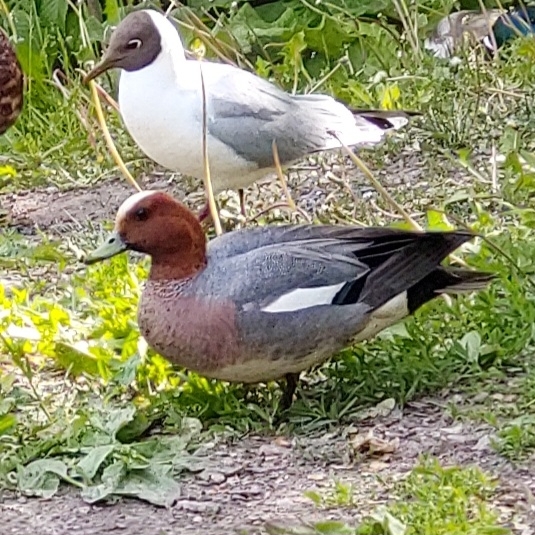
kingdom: Animalia
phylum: Chordata
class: Aves
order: Anseriformes
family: Anatidae
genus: Mareca
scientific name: Mareca penelope
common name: Eurasian wigeon
